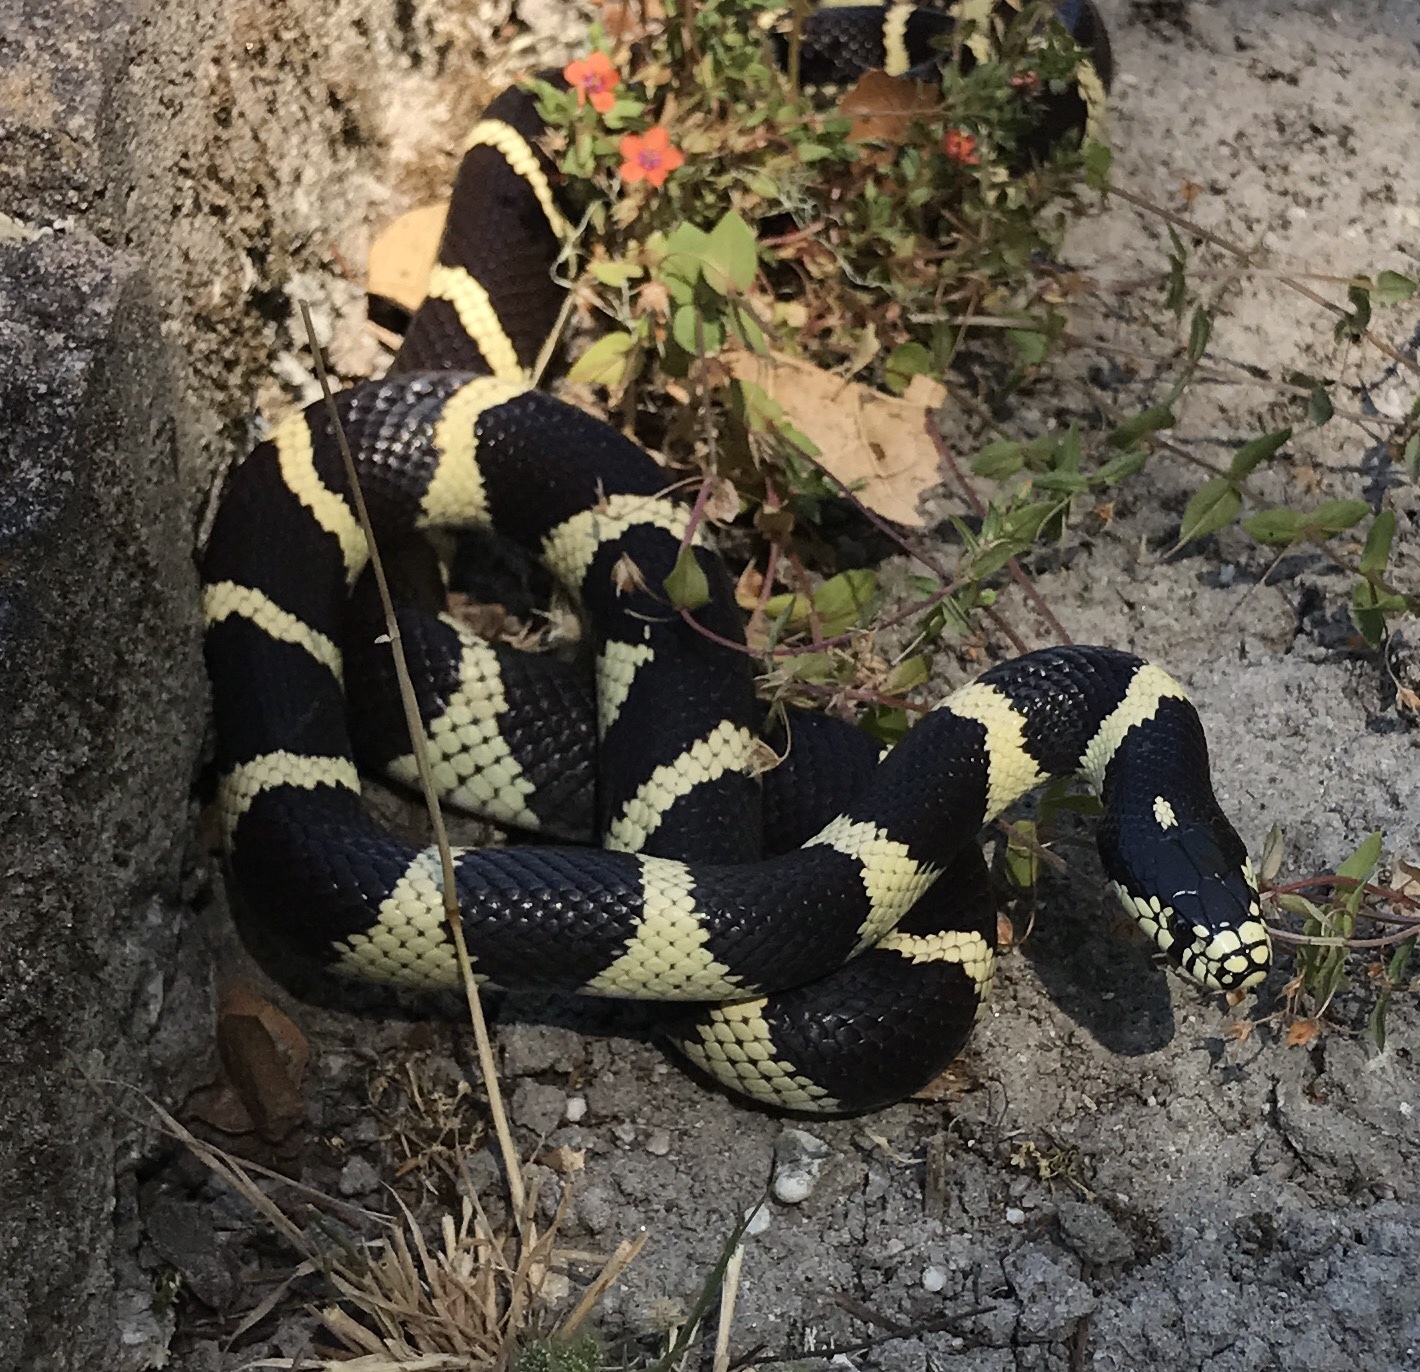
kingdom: Animalia
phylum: Chordata
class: Squamata
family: Colubridae
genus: Lampropeltis
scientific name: Lampropeltis californiae
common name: California kingsnake
